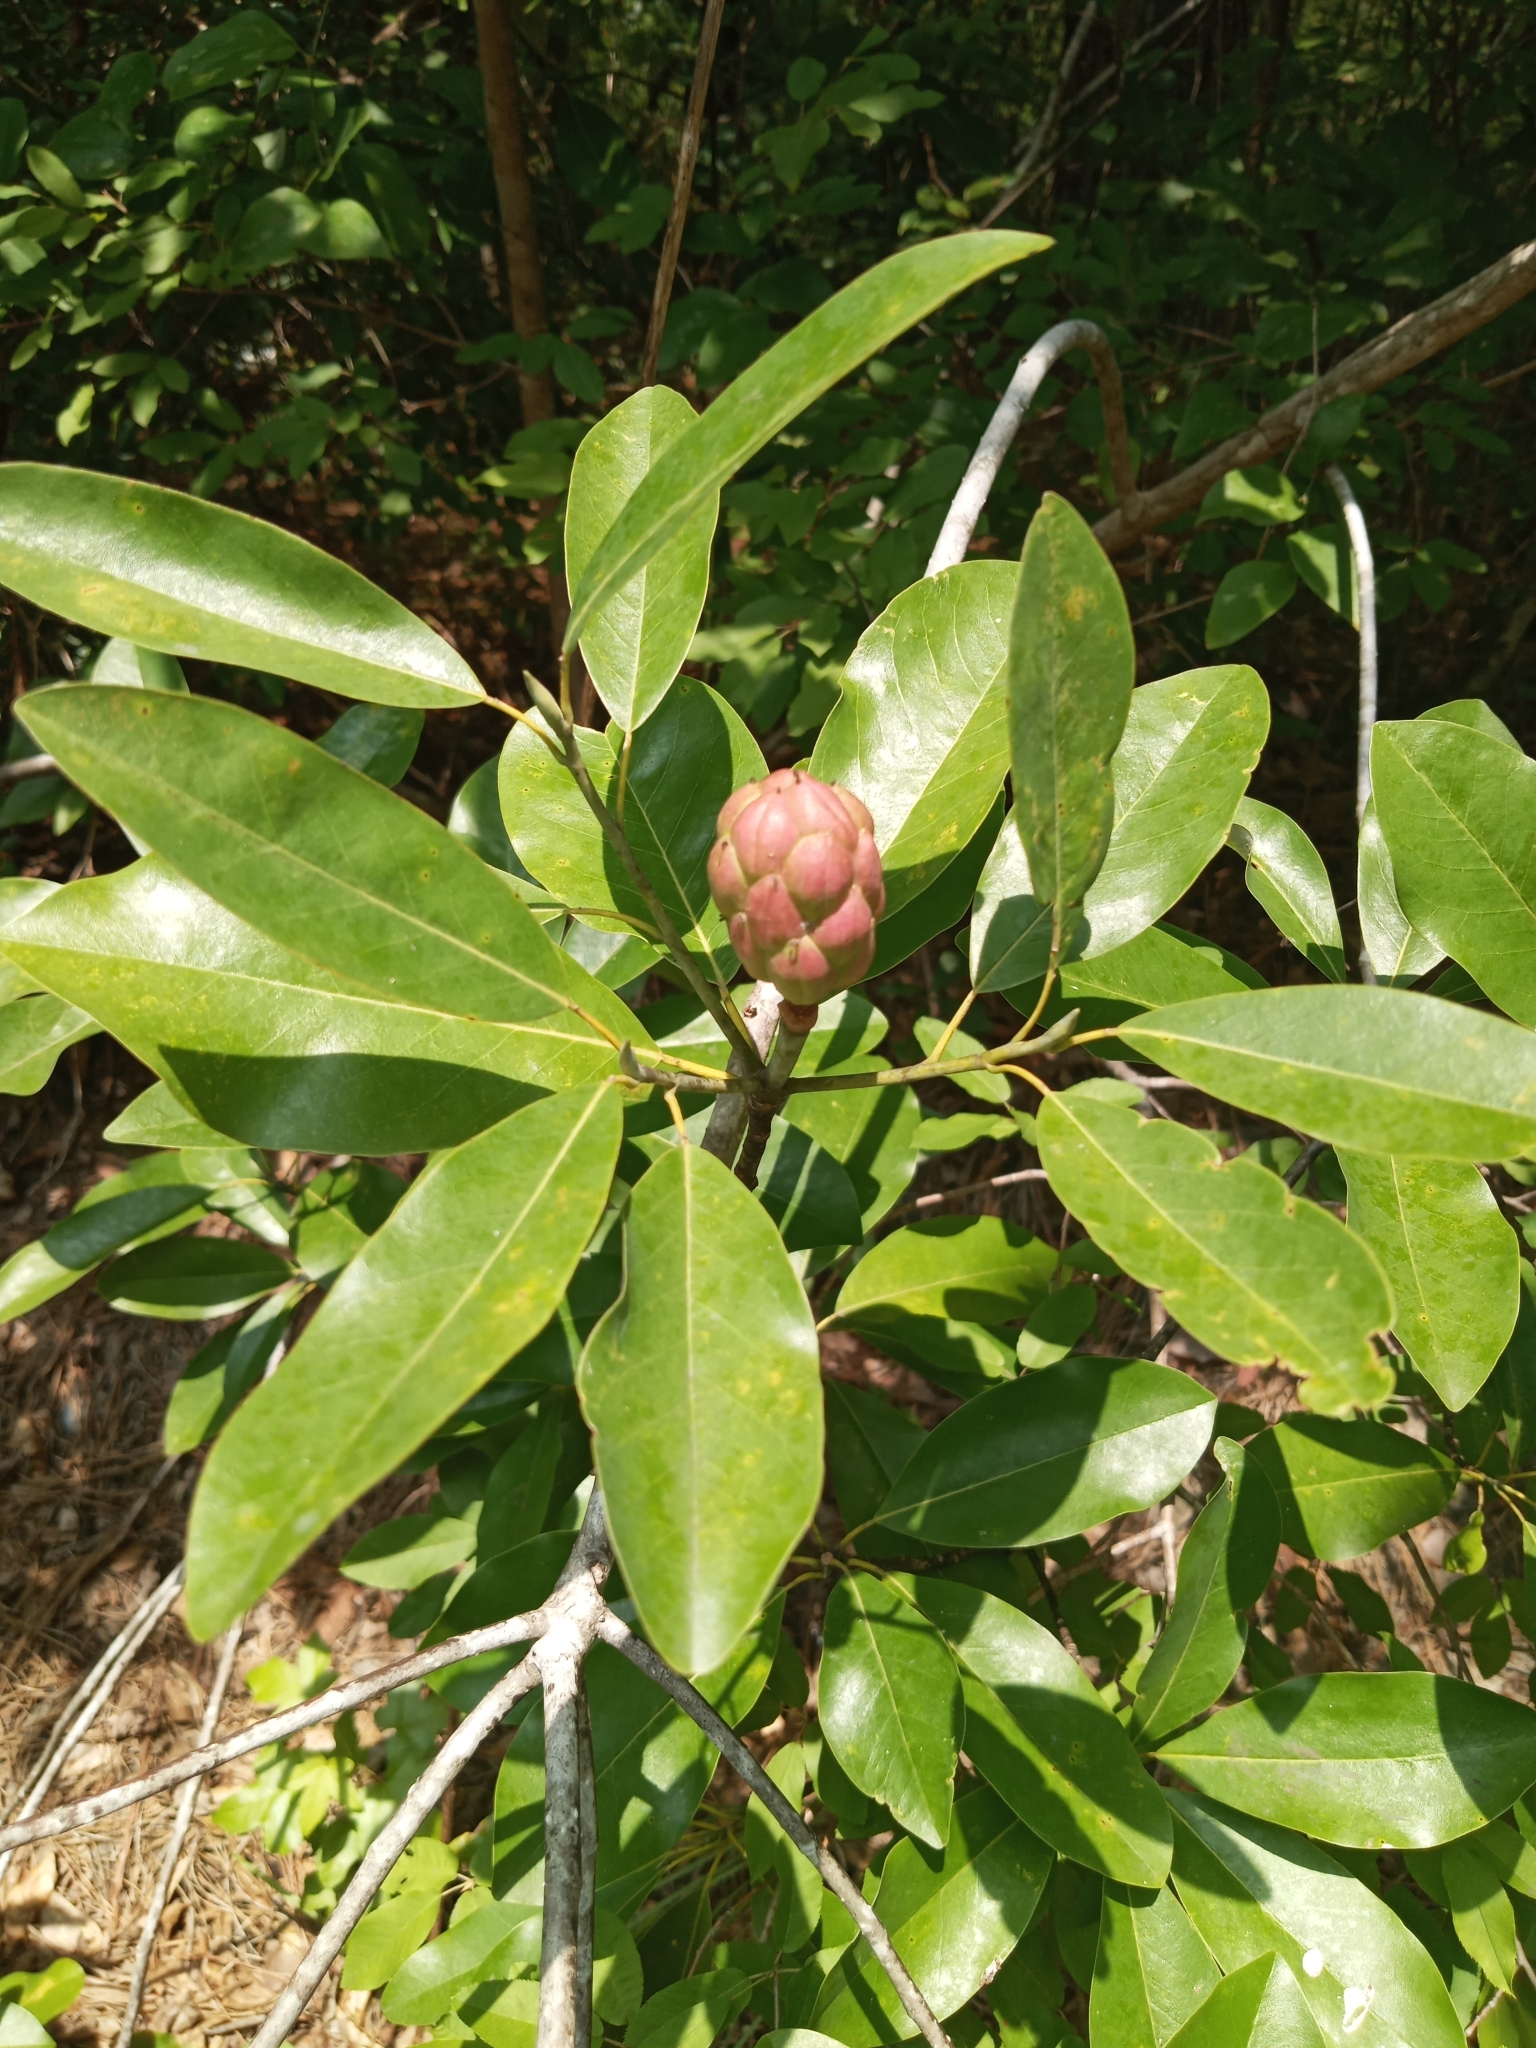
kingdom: Plantae
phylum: Tracheophyta
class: Magnoliopsida
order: Magnoliales
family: Magnoliaceae
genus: Magnolia
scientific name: Magnolia virginiana
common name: Swamp bay
